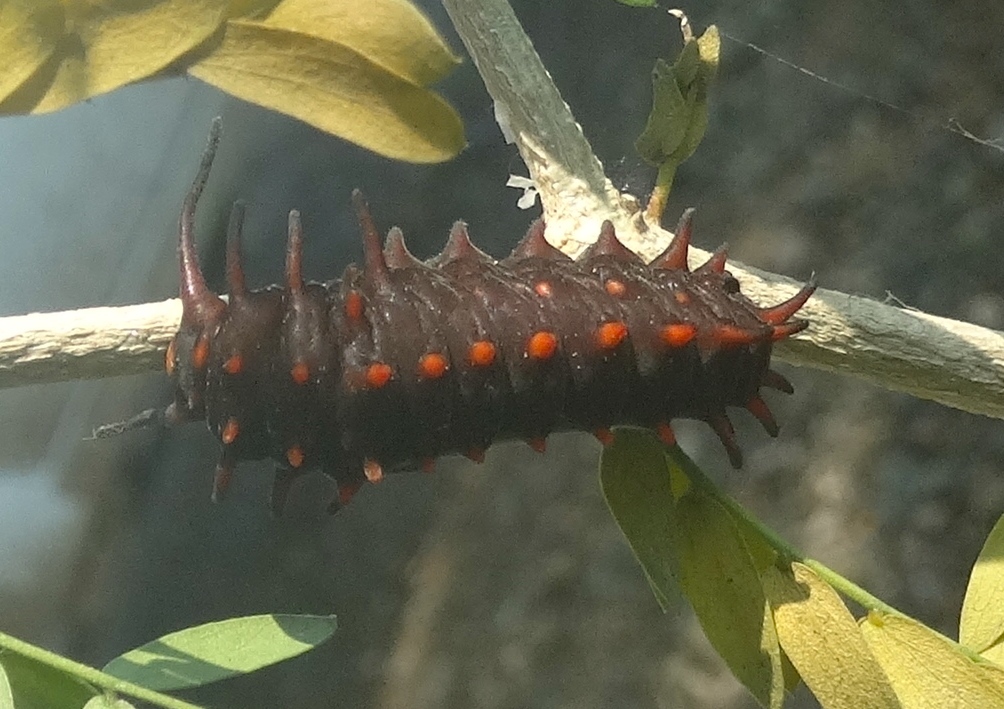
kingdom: Animalia
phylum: Arthropoda
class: Insecta
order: Lepidoptera
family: Papilionidae
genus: Battus
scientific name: Battus philenor
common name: Pipevine swallowtail
